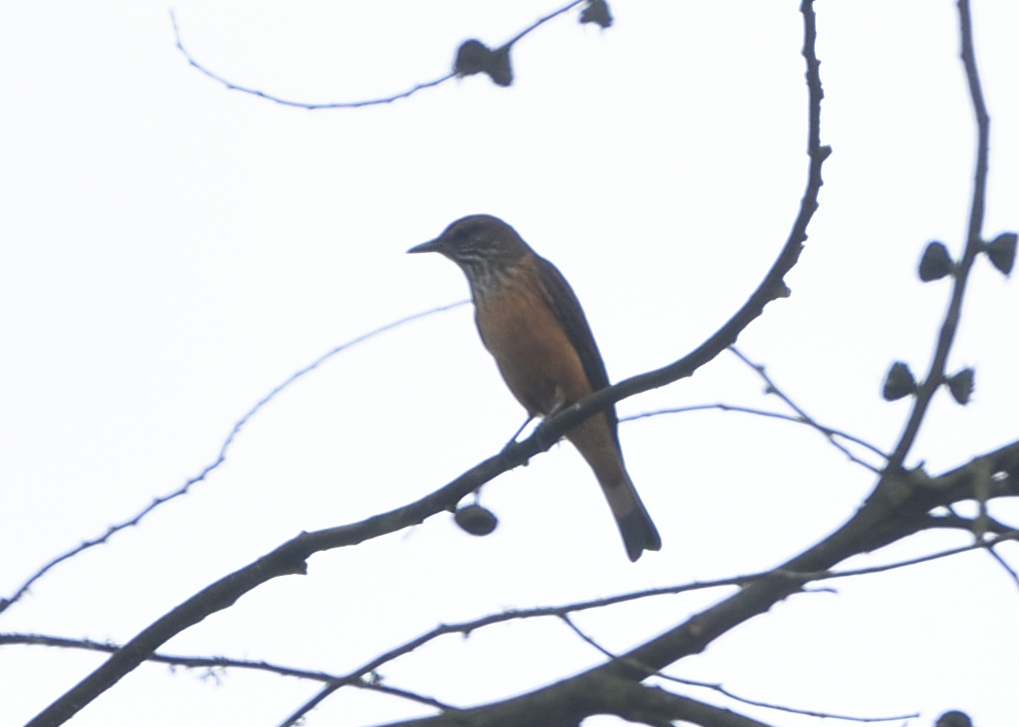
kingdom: Animalia
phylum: Chordata
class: Aves
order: Passeriformes
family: Tyrannidae
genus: Myiotheretes
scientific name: Myiotheretes striaticollis
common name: Streak-throated bush tyrant
